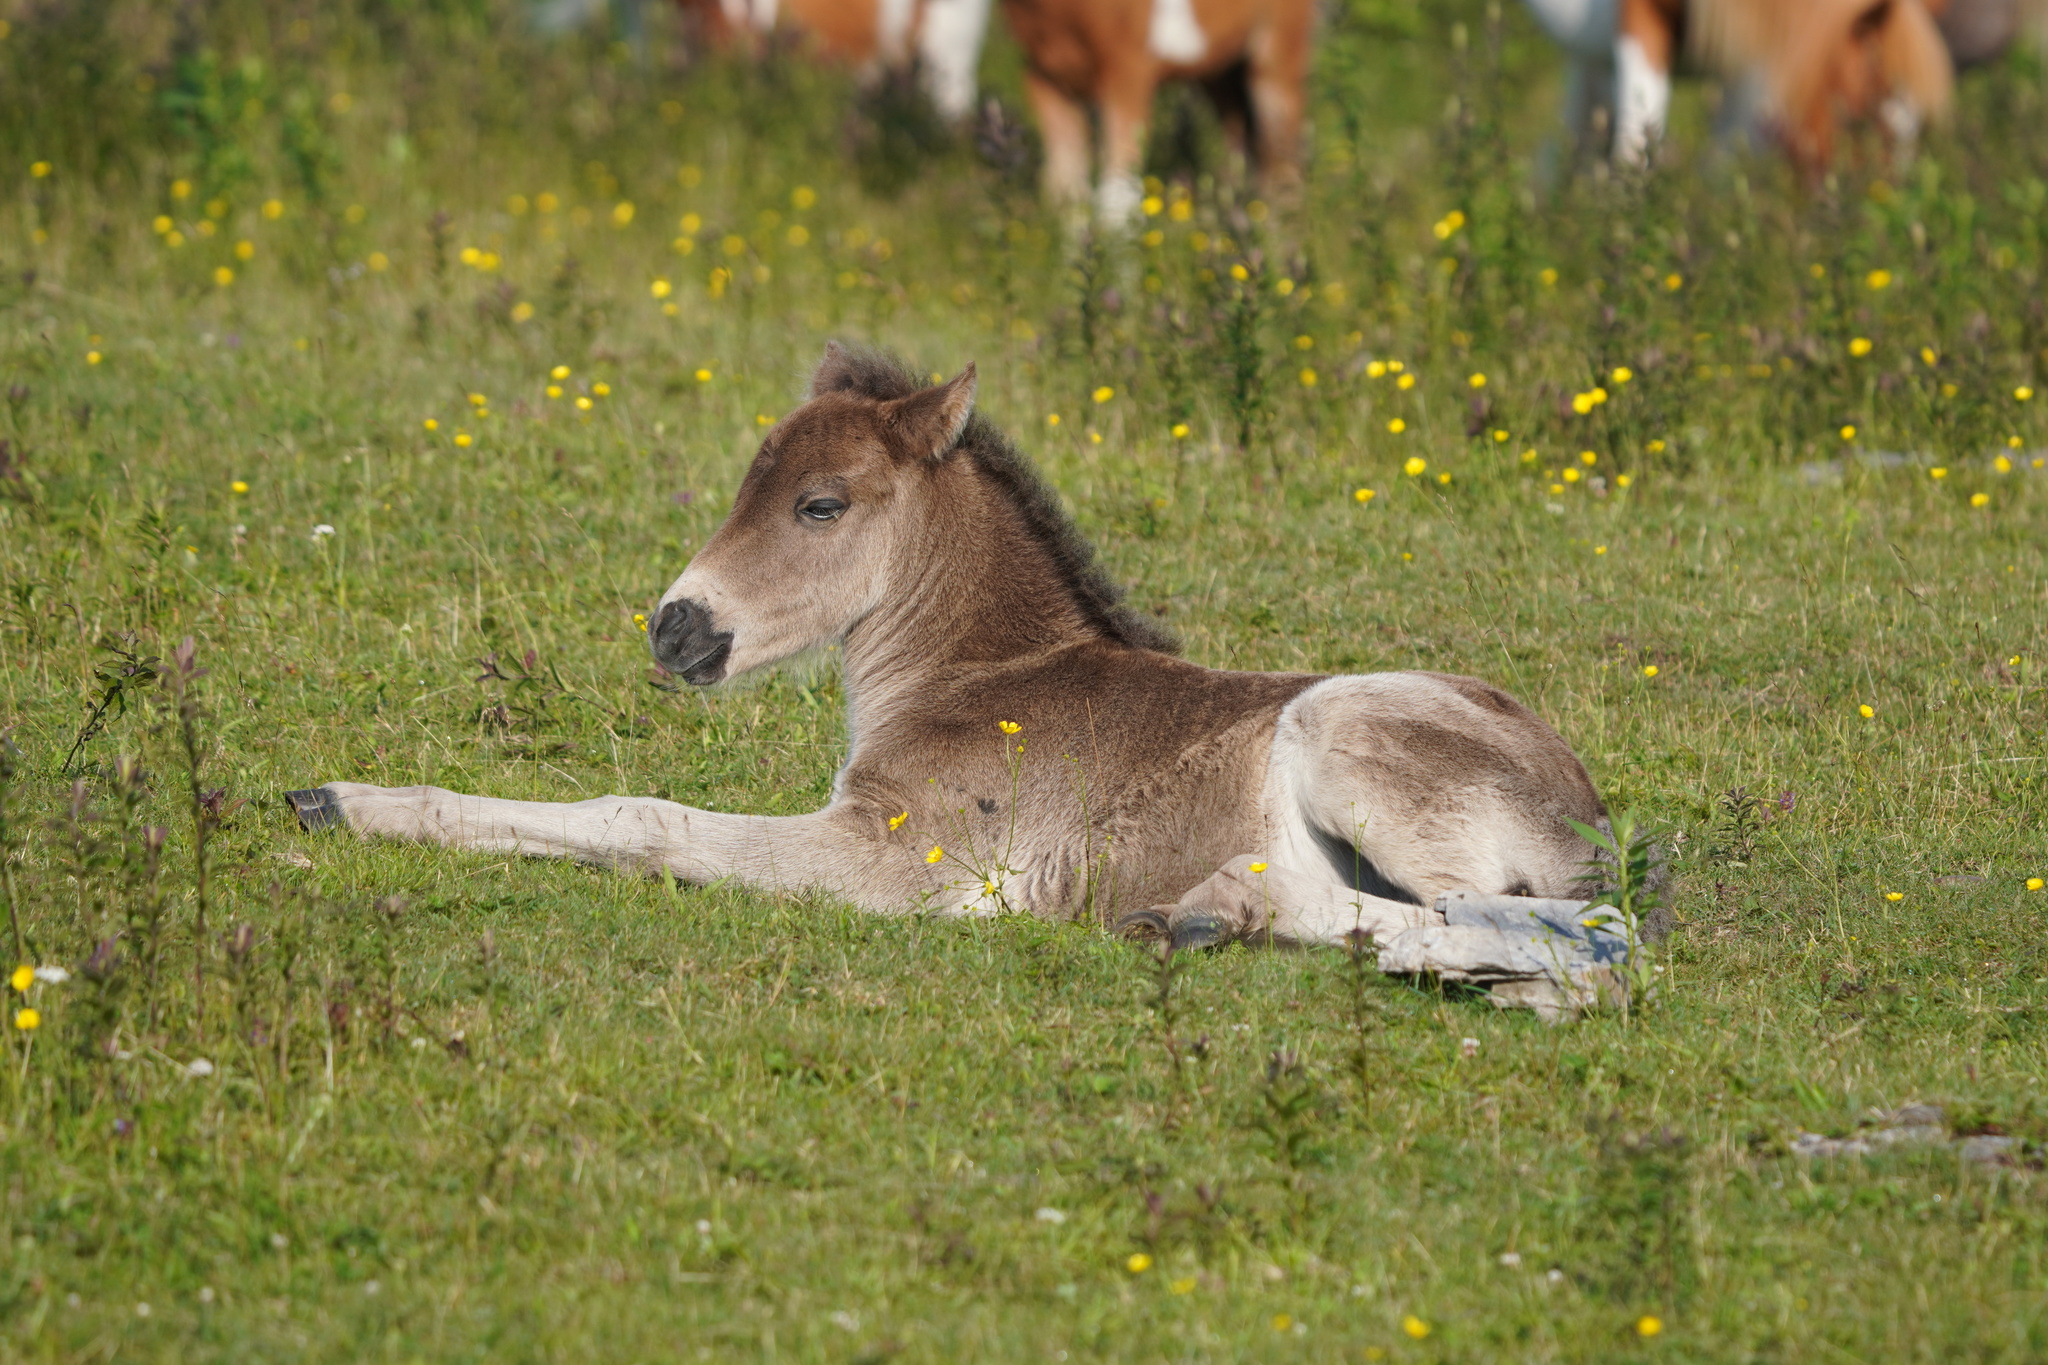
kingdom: Animalia
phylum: Chordata
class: Mammalia
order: Perissodactyla
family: Equidae
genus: Equus
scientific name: Equus caballus
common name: Horse
